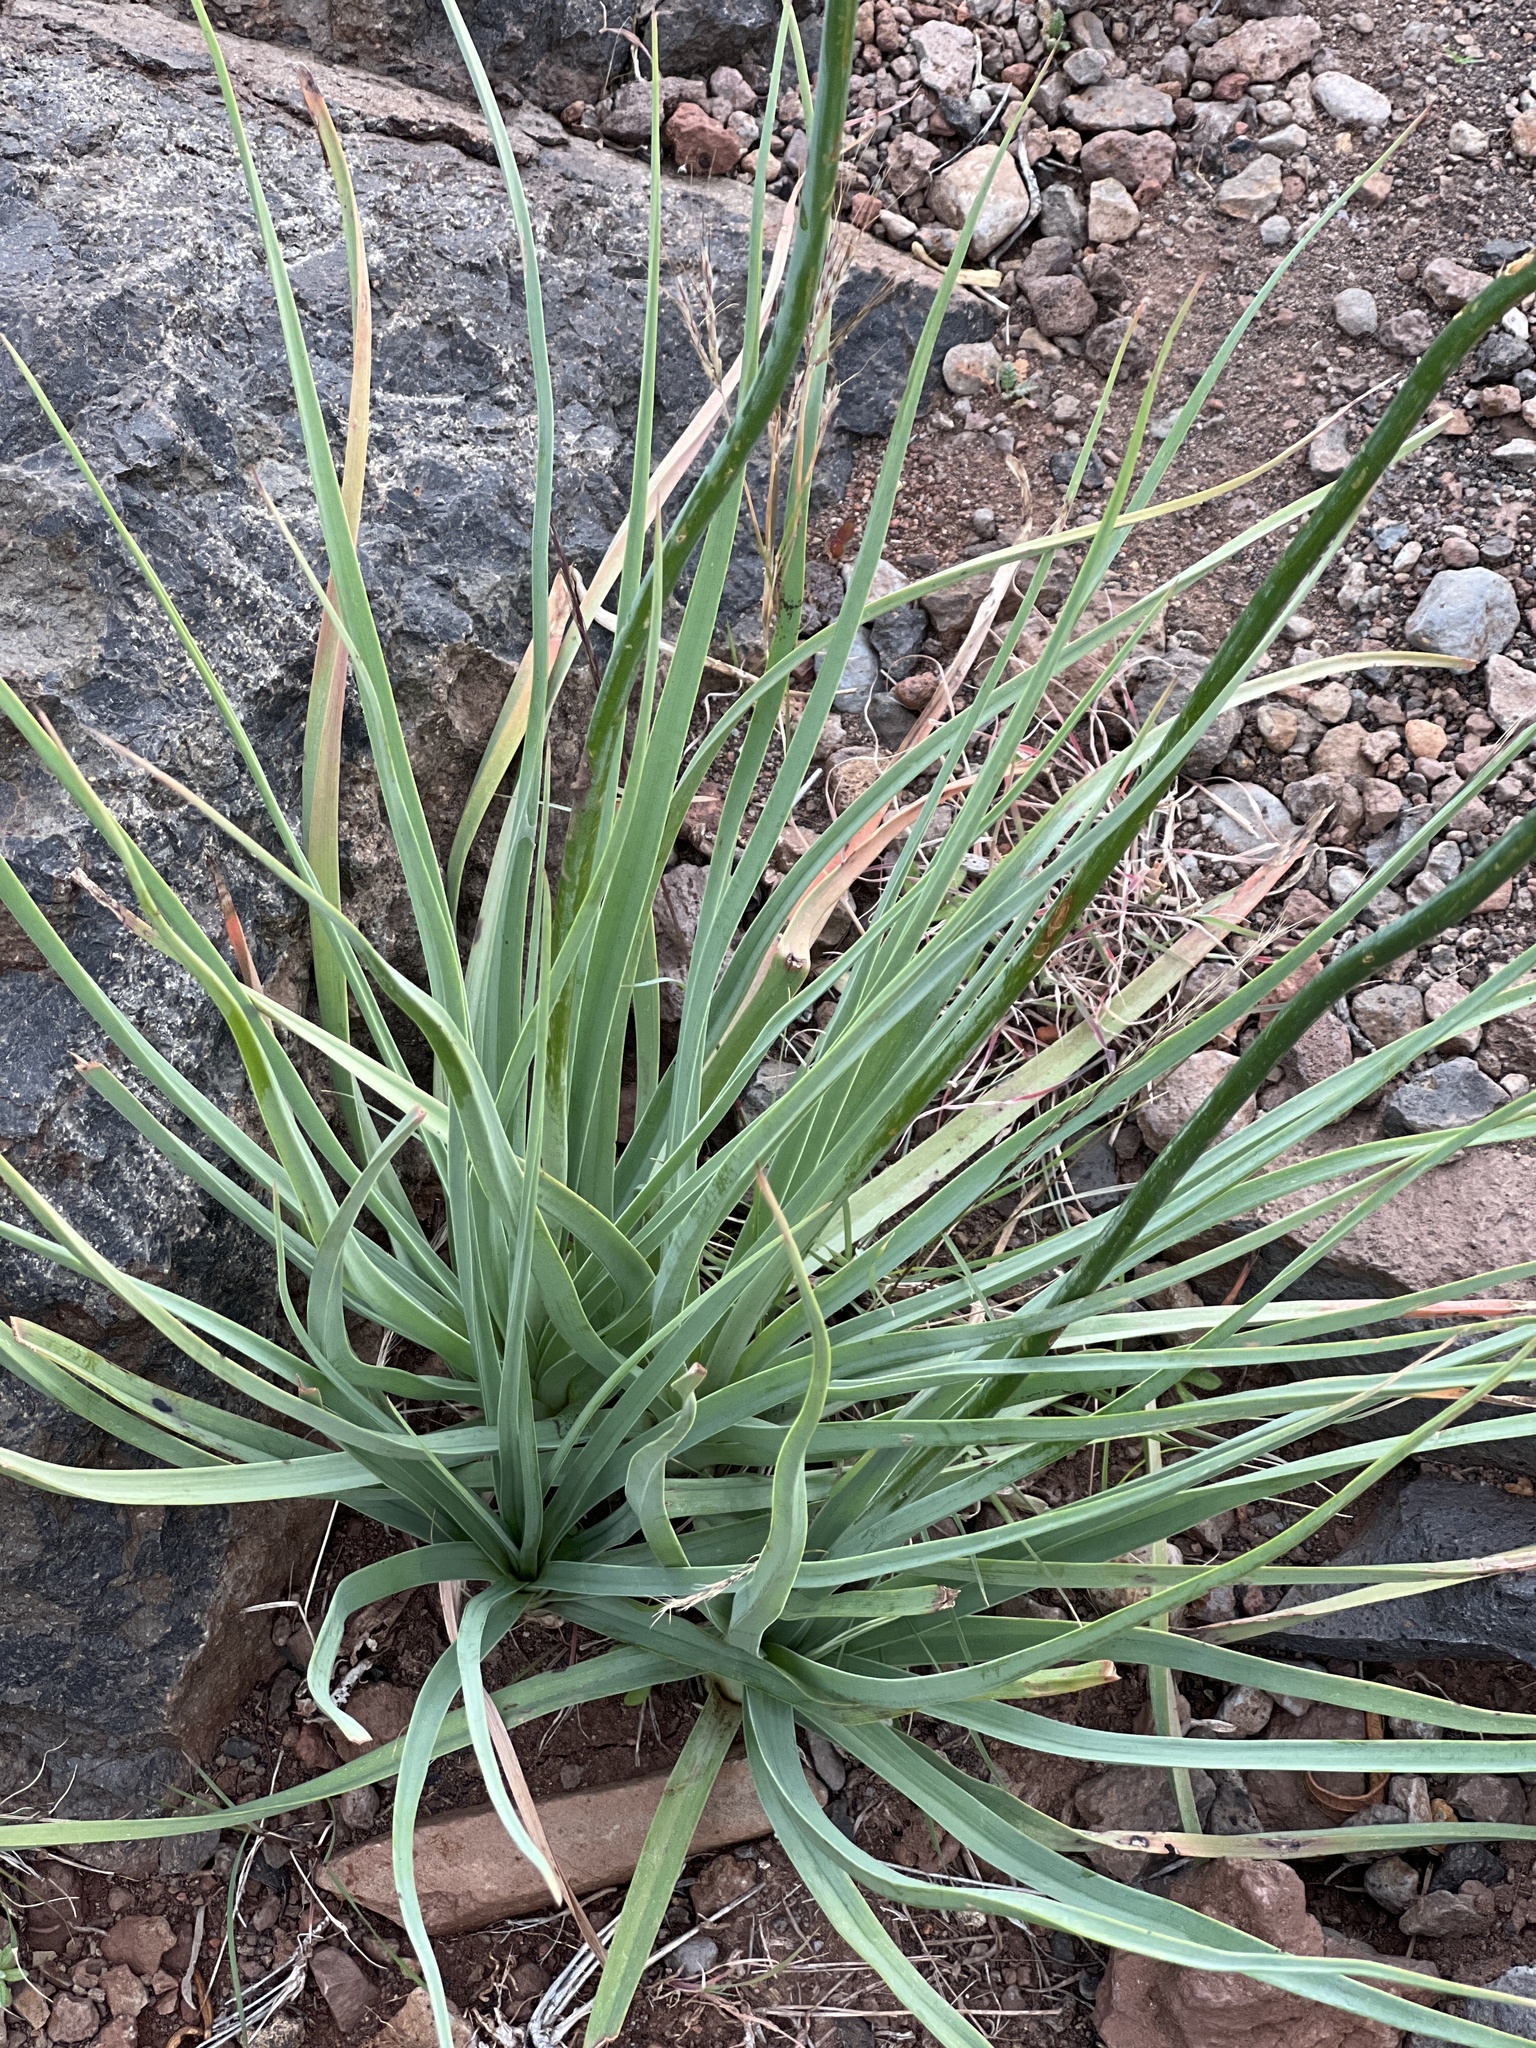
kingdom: Plantae
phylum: Tracheophyta
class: Liliopsida
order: Asparagales
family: Asphodelaceae
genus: Asphodelus
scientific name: Asphodelus ramosus
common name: Silverrod
